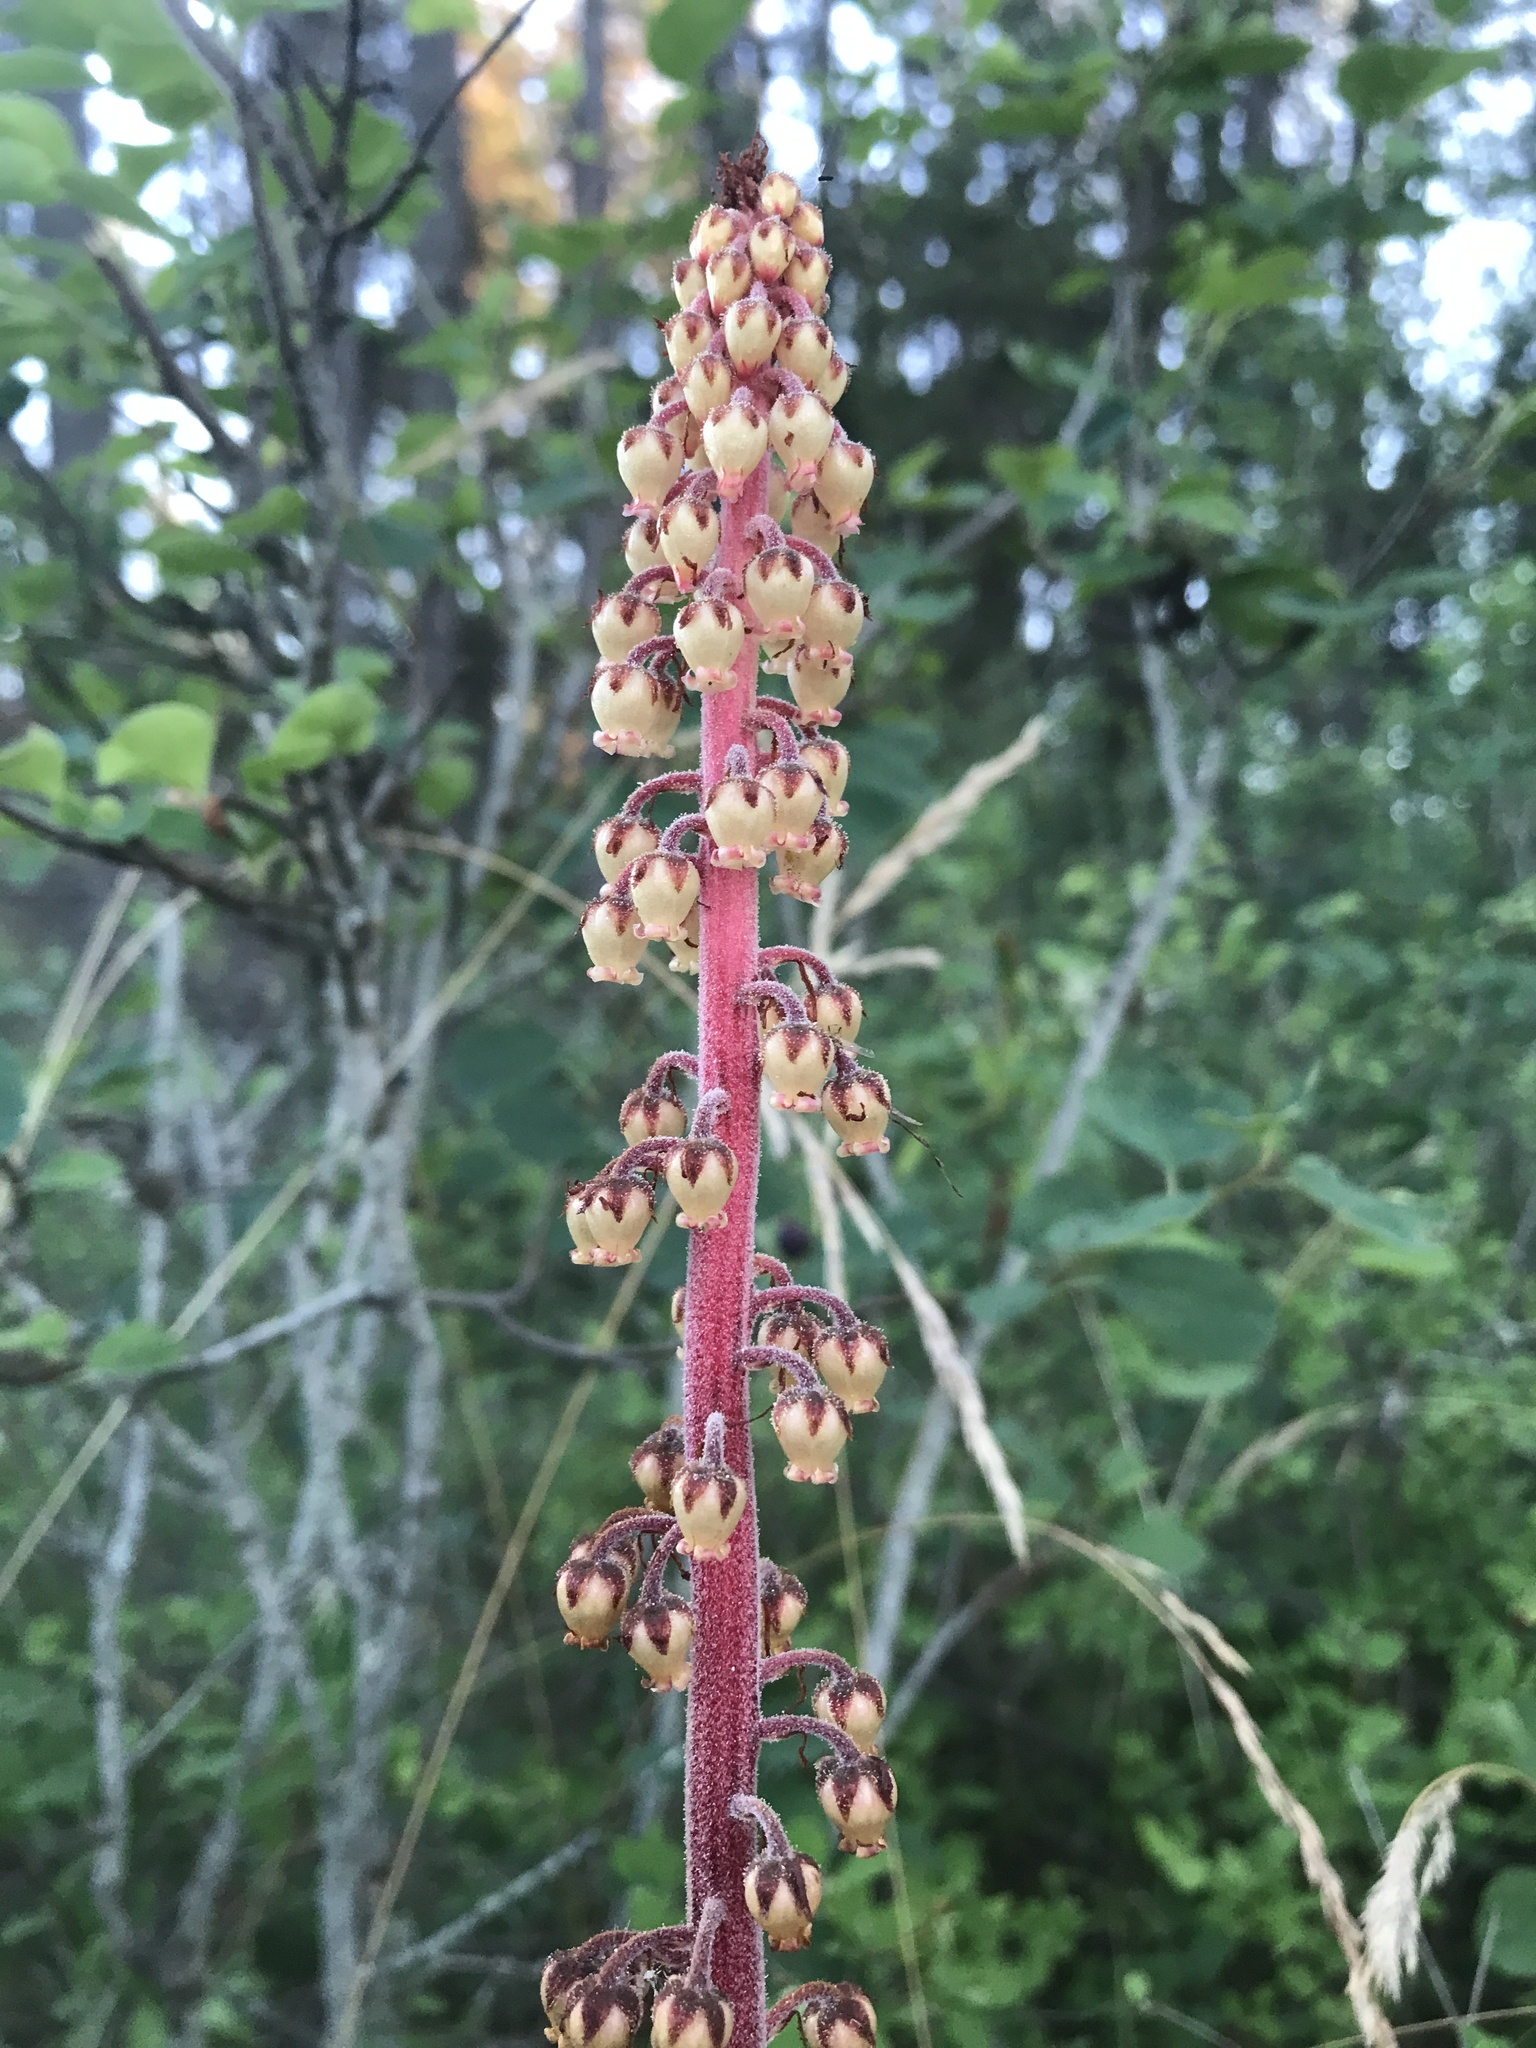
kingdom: Plantae
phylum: Tracheophyta
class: Magnoliopsida
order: Ericales
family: Ericaceae
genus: Pterospora
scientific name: Pterospora andromedea
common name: Giant bird's-nest
